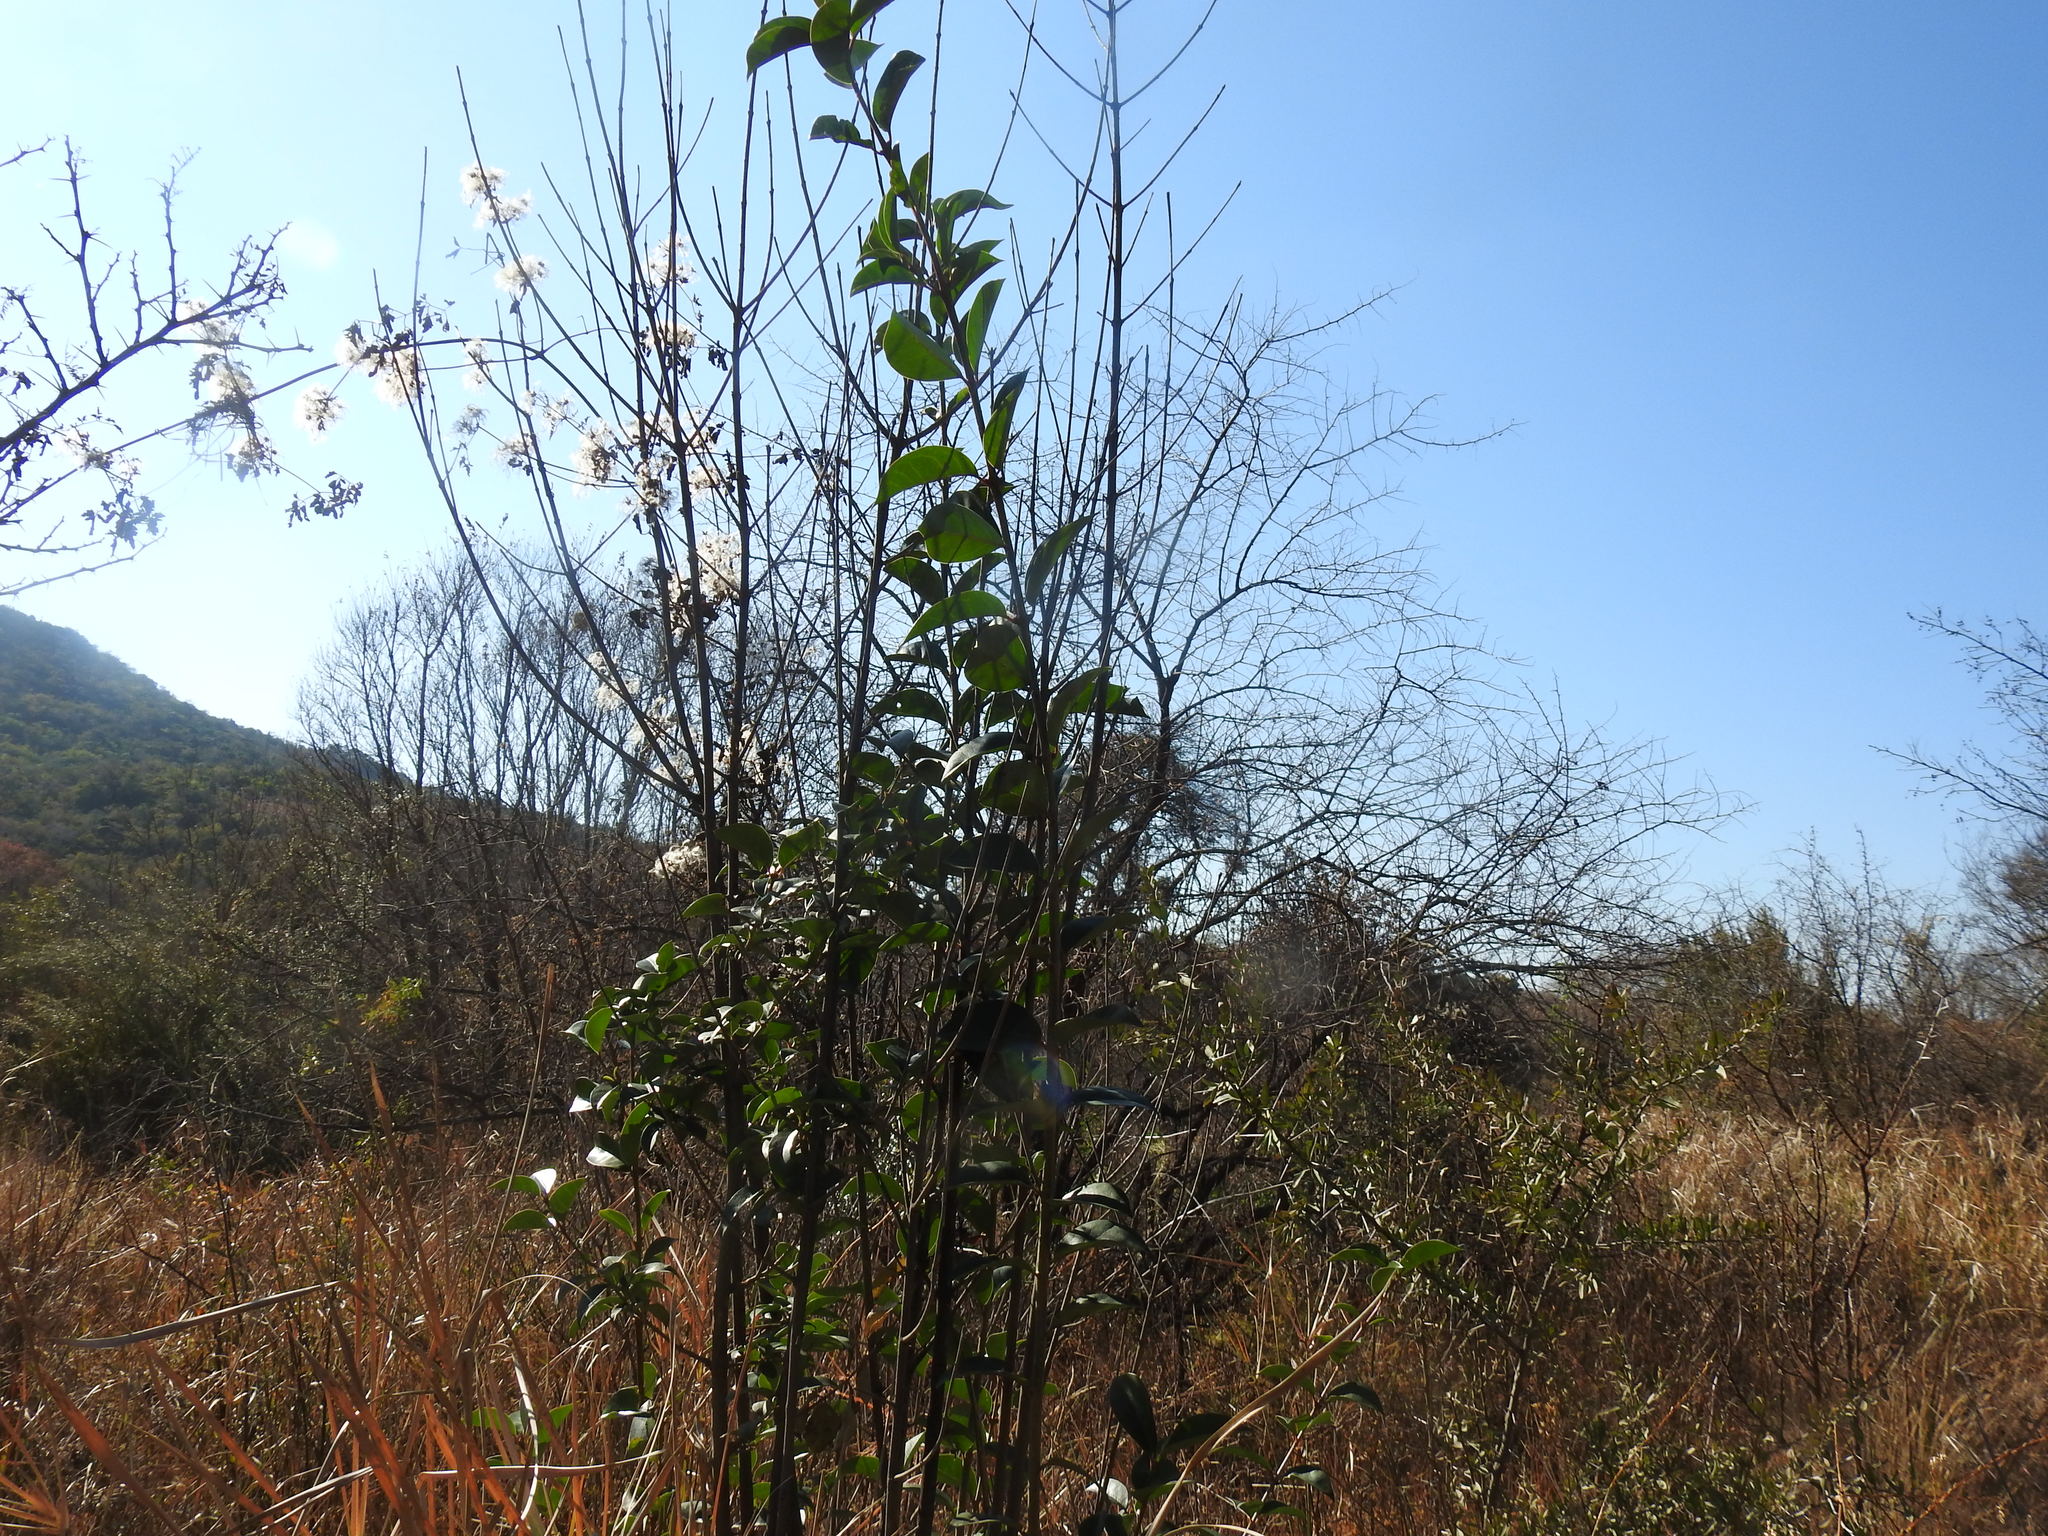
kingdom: Plantae
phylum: Tracheophyta
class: Magnoliopsida
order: Lamiales
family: Oleaceae
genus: Ligustrum
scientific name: Ligustrum lucidum
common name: Glossy privet
